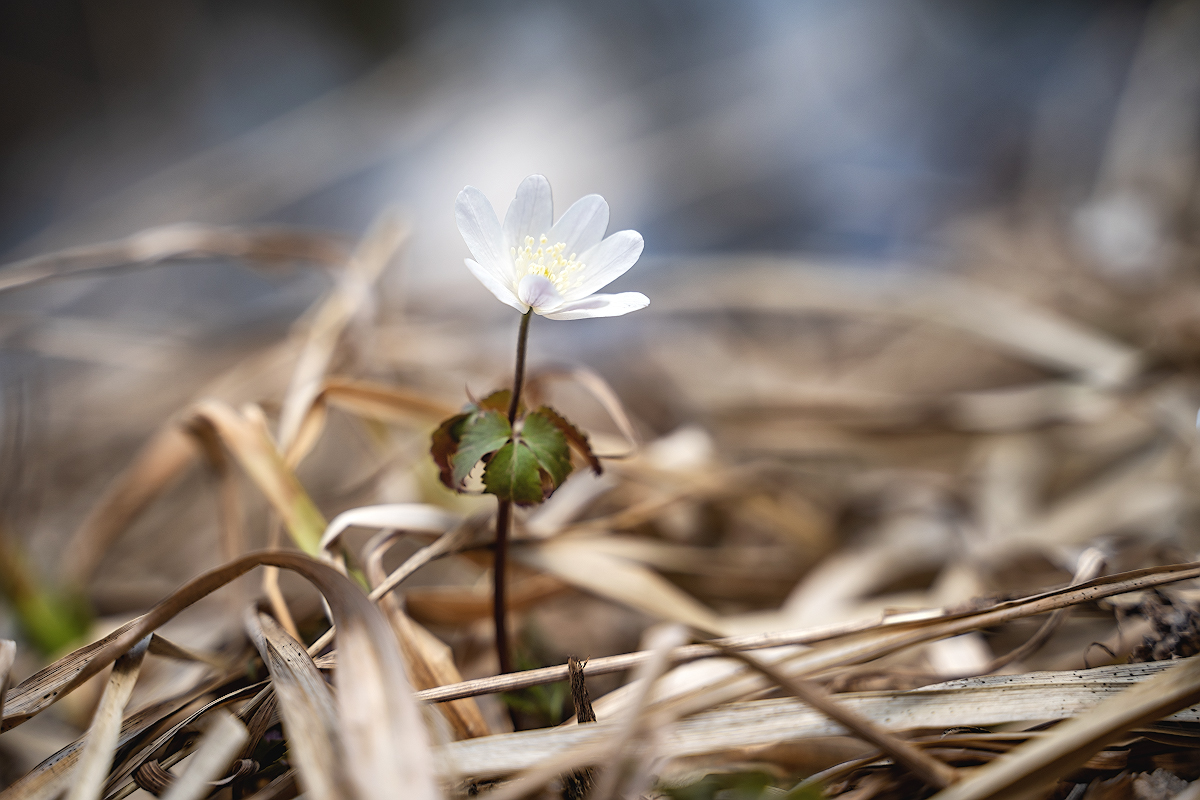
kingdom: Plantae
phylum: Tracheophyta
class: Magnoliopsida
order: Ranunculales
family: Ranunculaceae
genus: Anemone
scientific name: Anemone altaica
